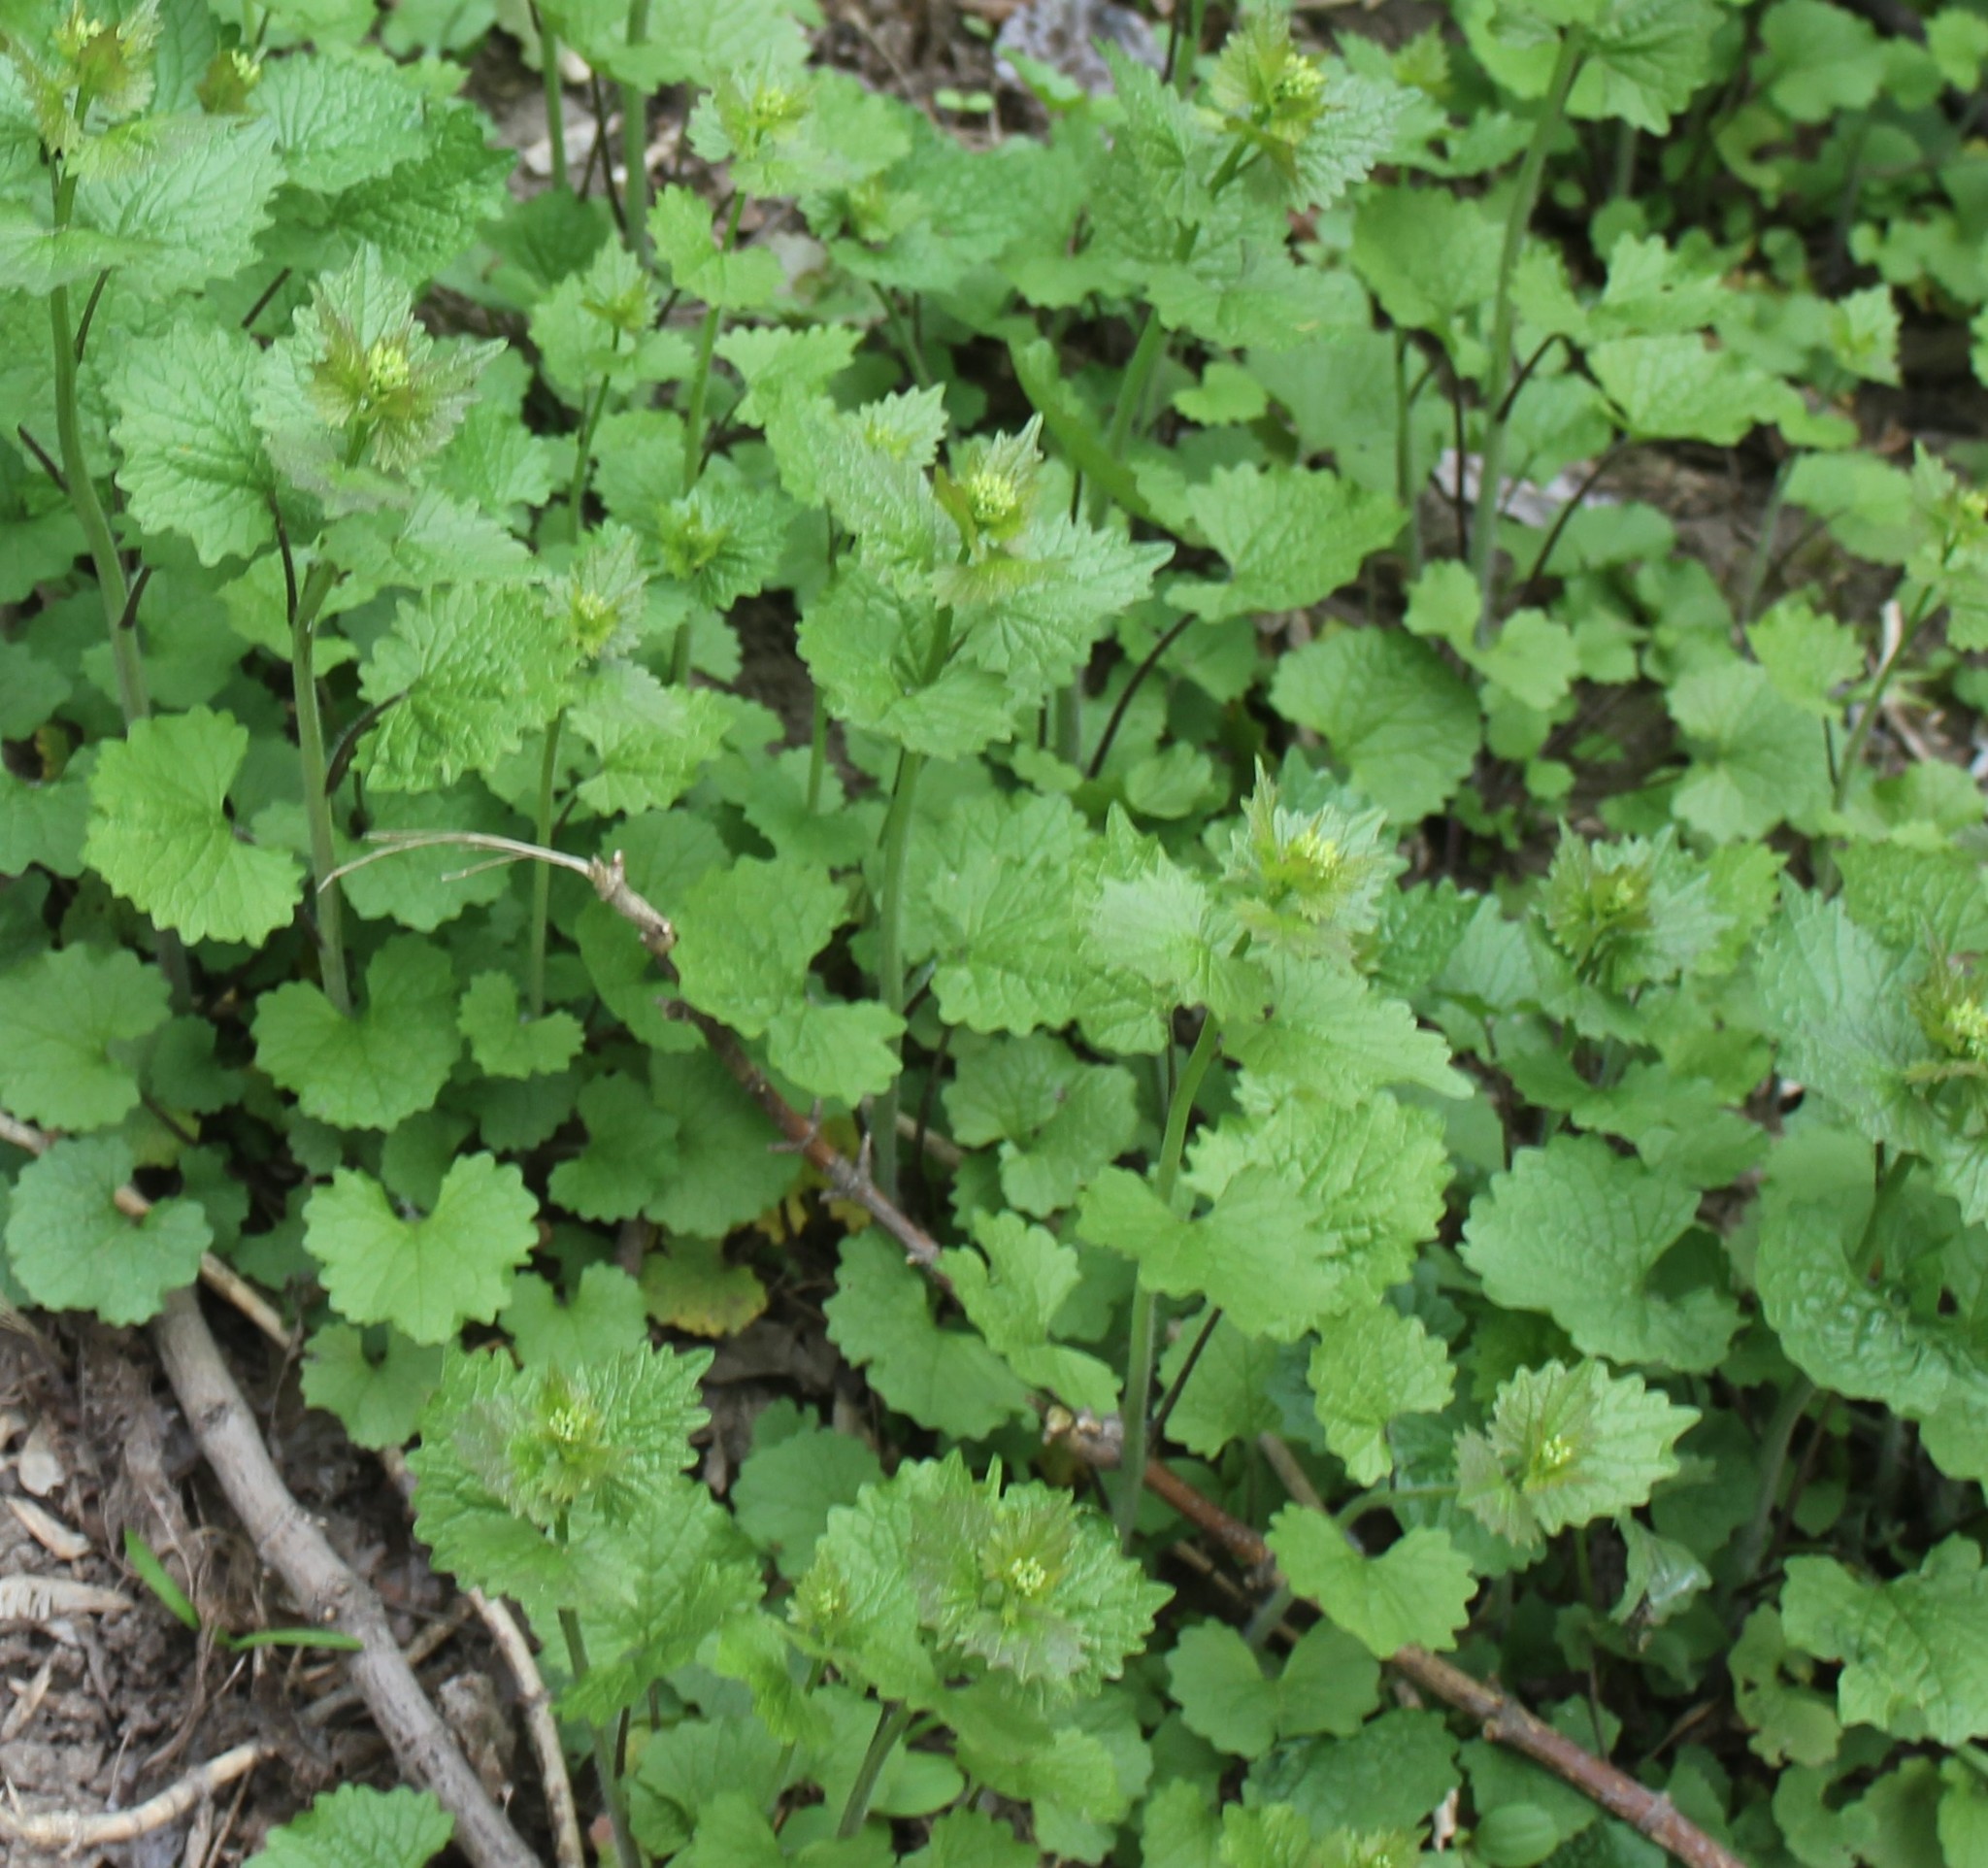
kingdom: Plantae
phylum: Tracheophyta
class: Magnoliopsida
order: Brassicales
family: Brassicaceae
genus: Alliaria
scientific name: Alliaria petiolata
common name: Garlic mustard
